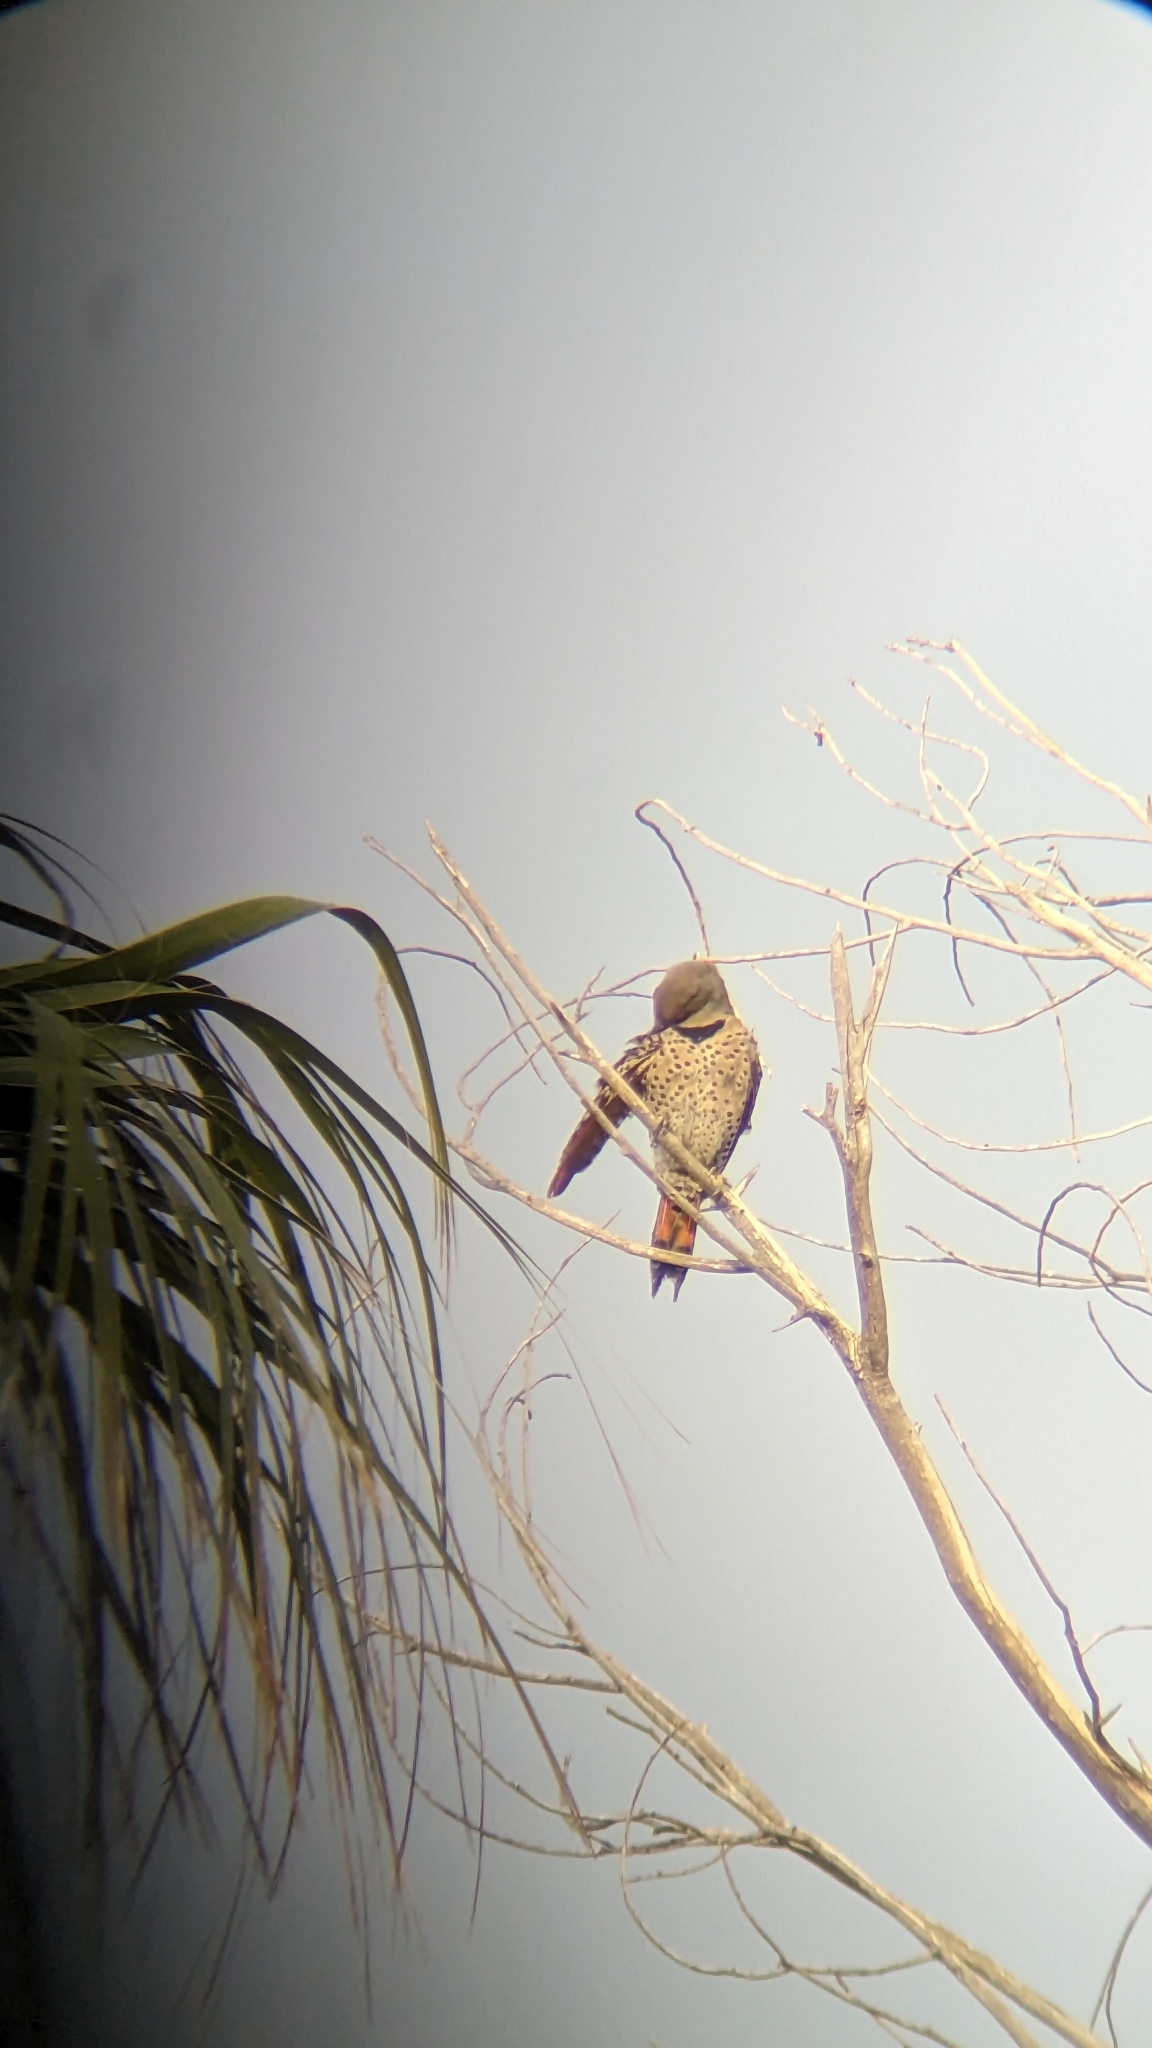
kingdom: Animalia
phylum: Chordata
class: Aves
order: Piciformes
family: Picidae
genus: Colaptes
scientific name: Colaptes auratus
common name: Northern flicker
